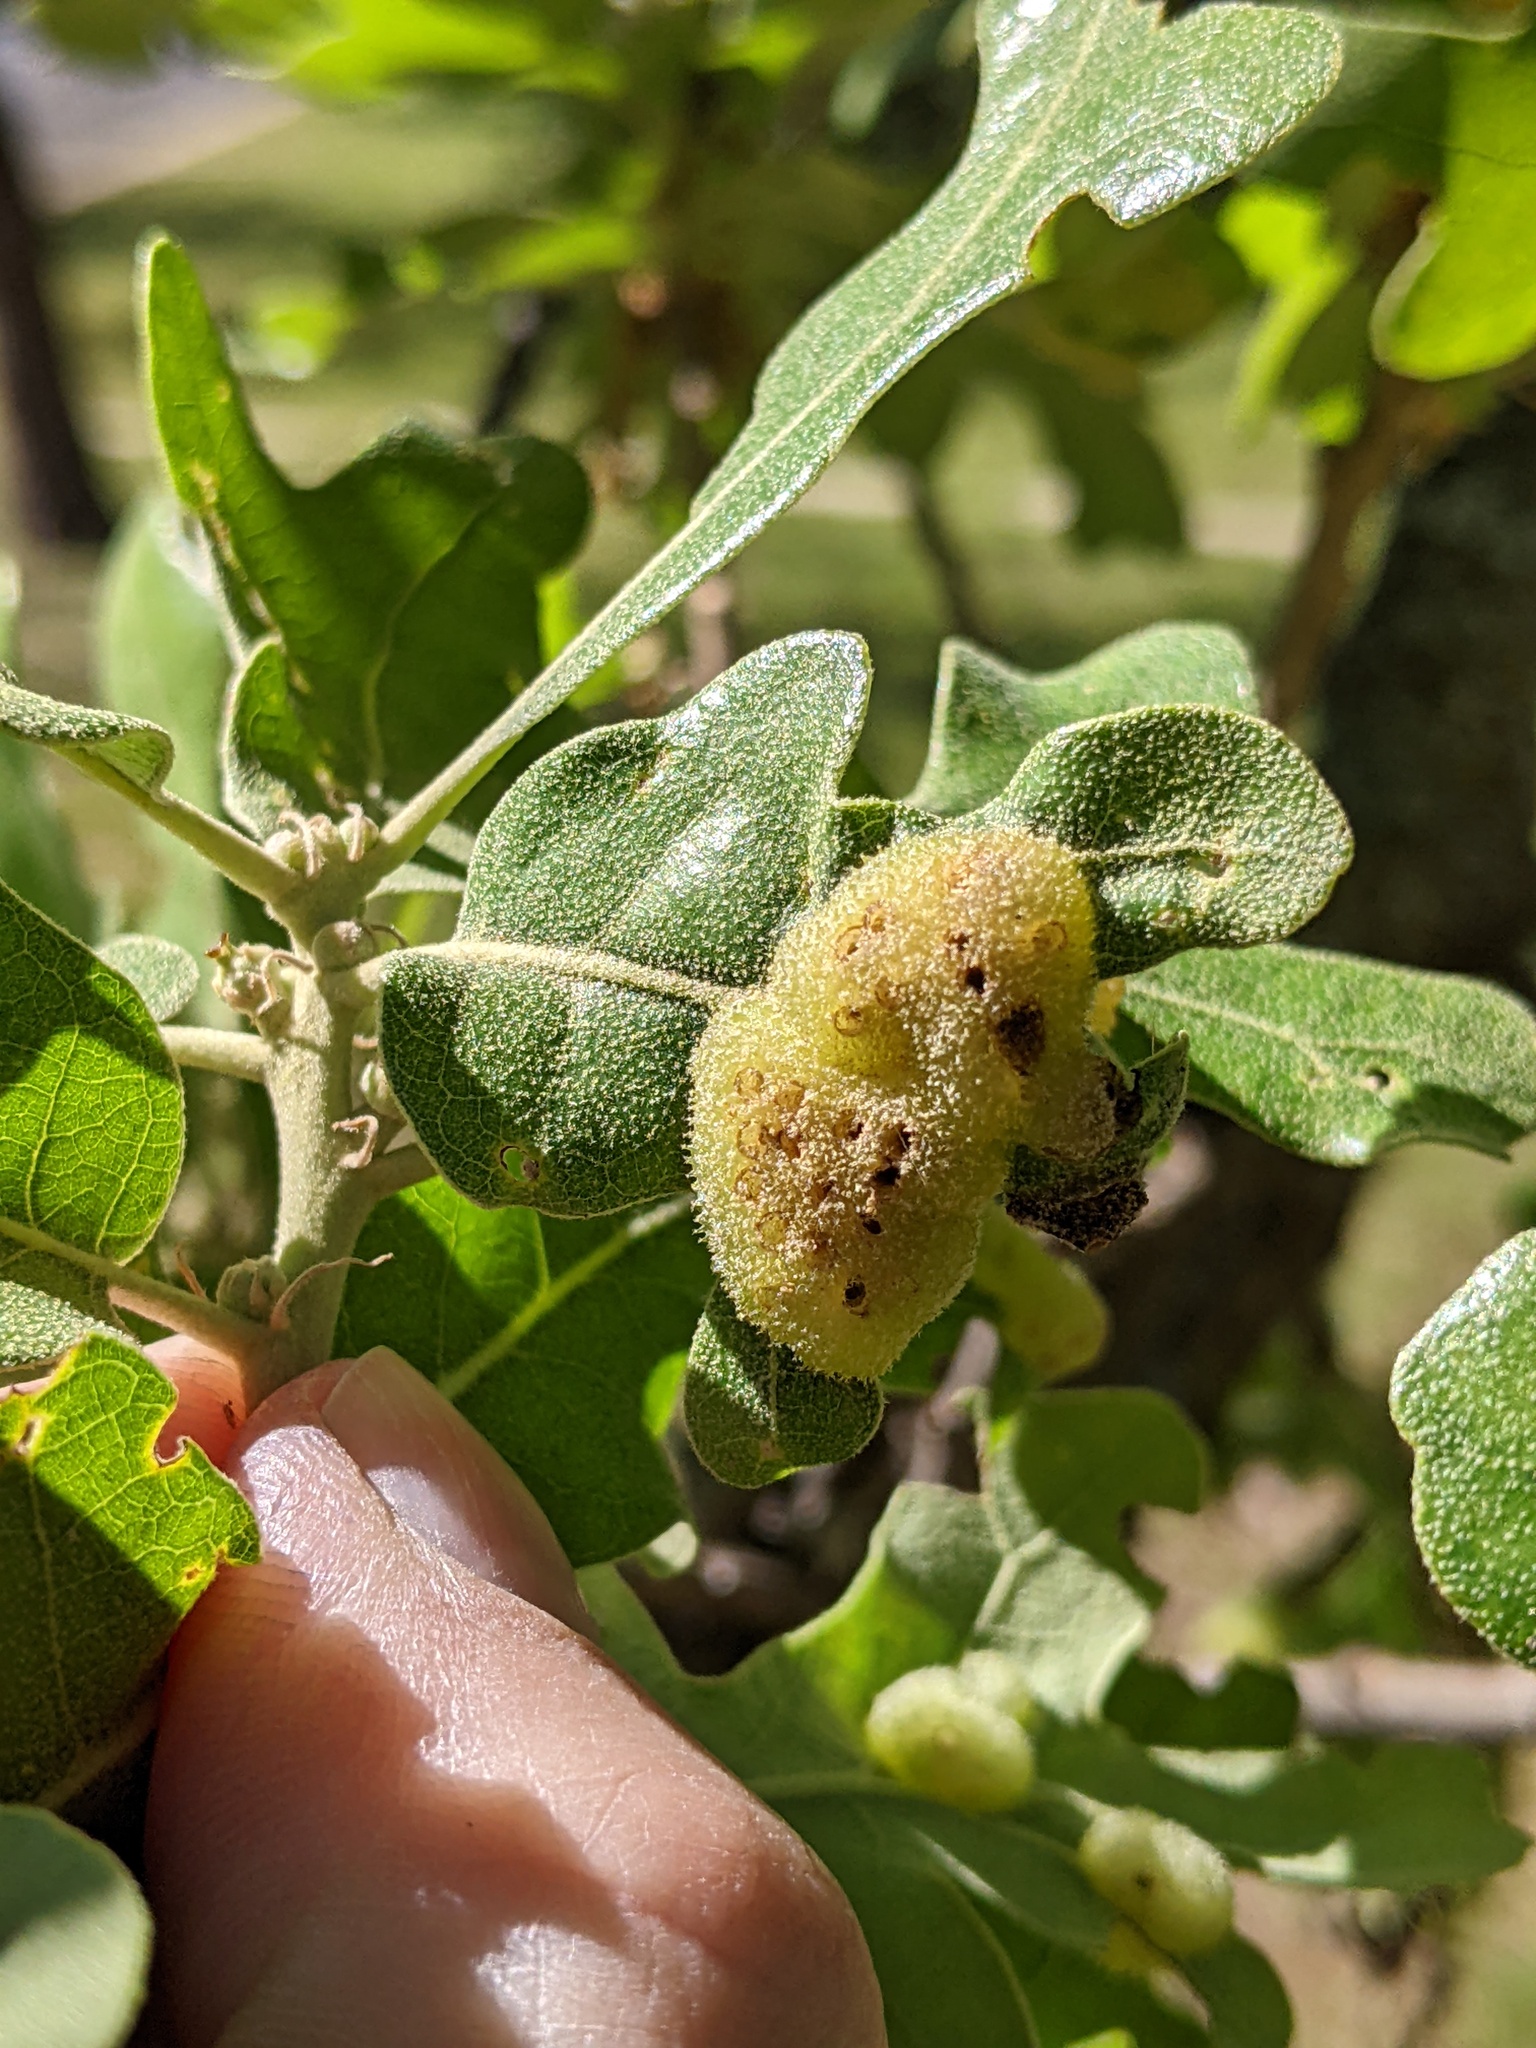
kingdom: Animalia
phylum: Arthropoda
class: Insecta
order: Hymenoptera
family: Cynipidae
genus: Neuroterus
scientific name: Neuroterus quercusirregularis
